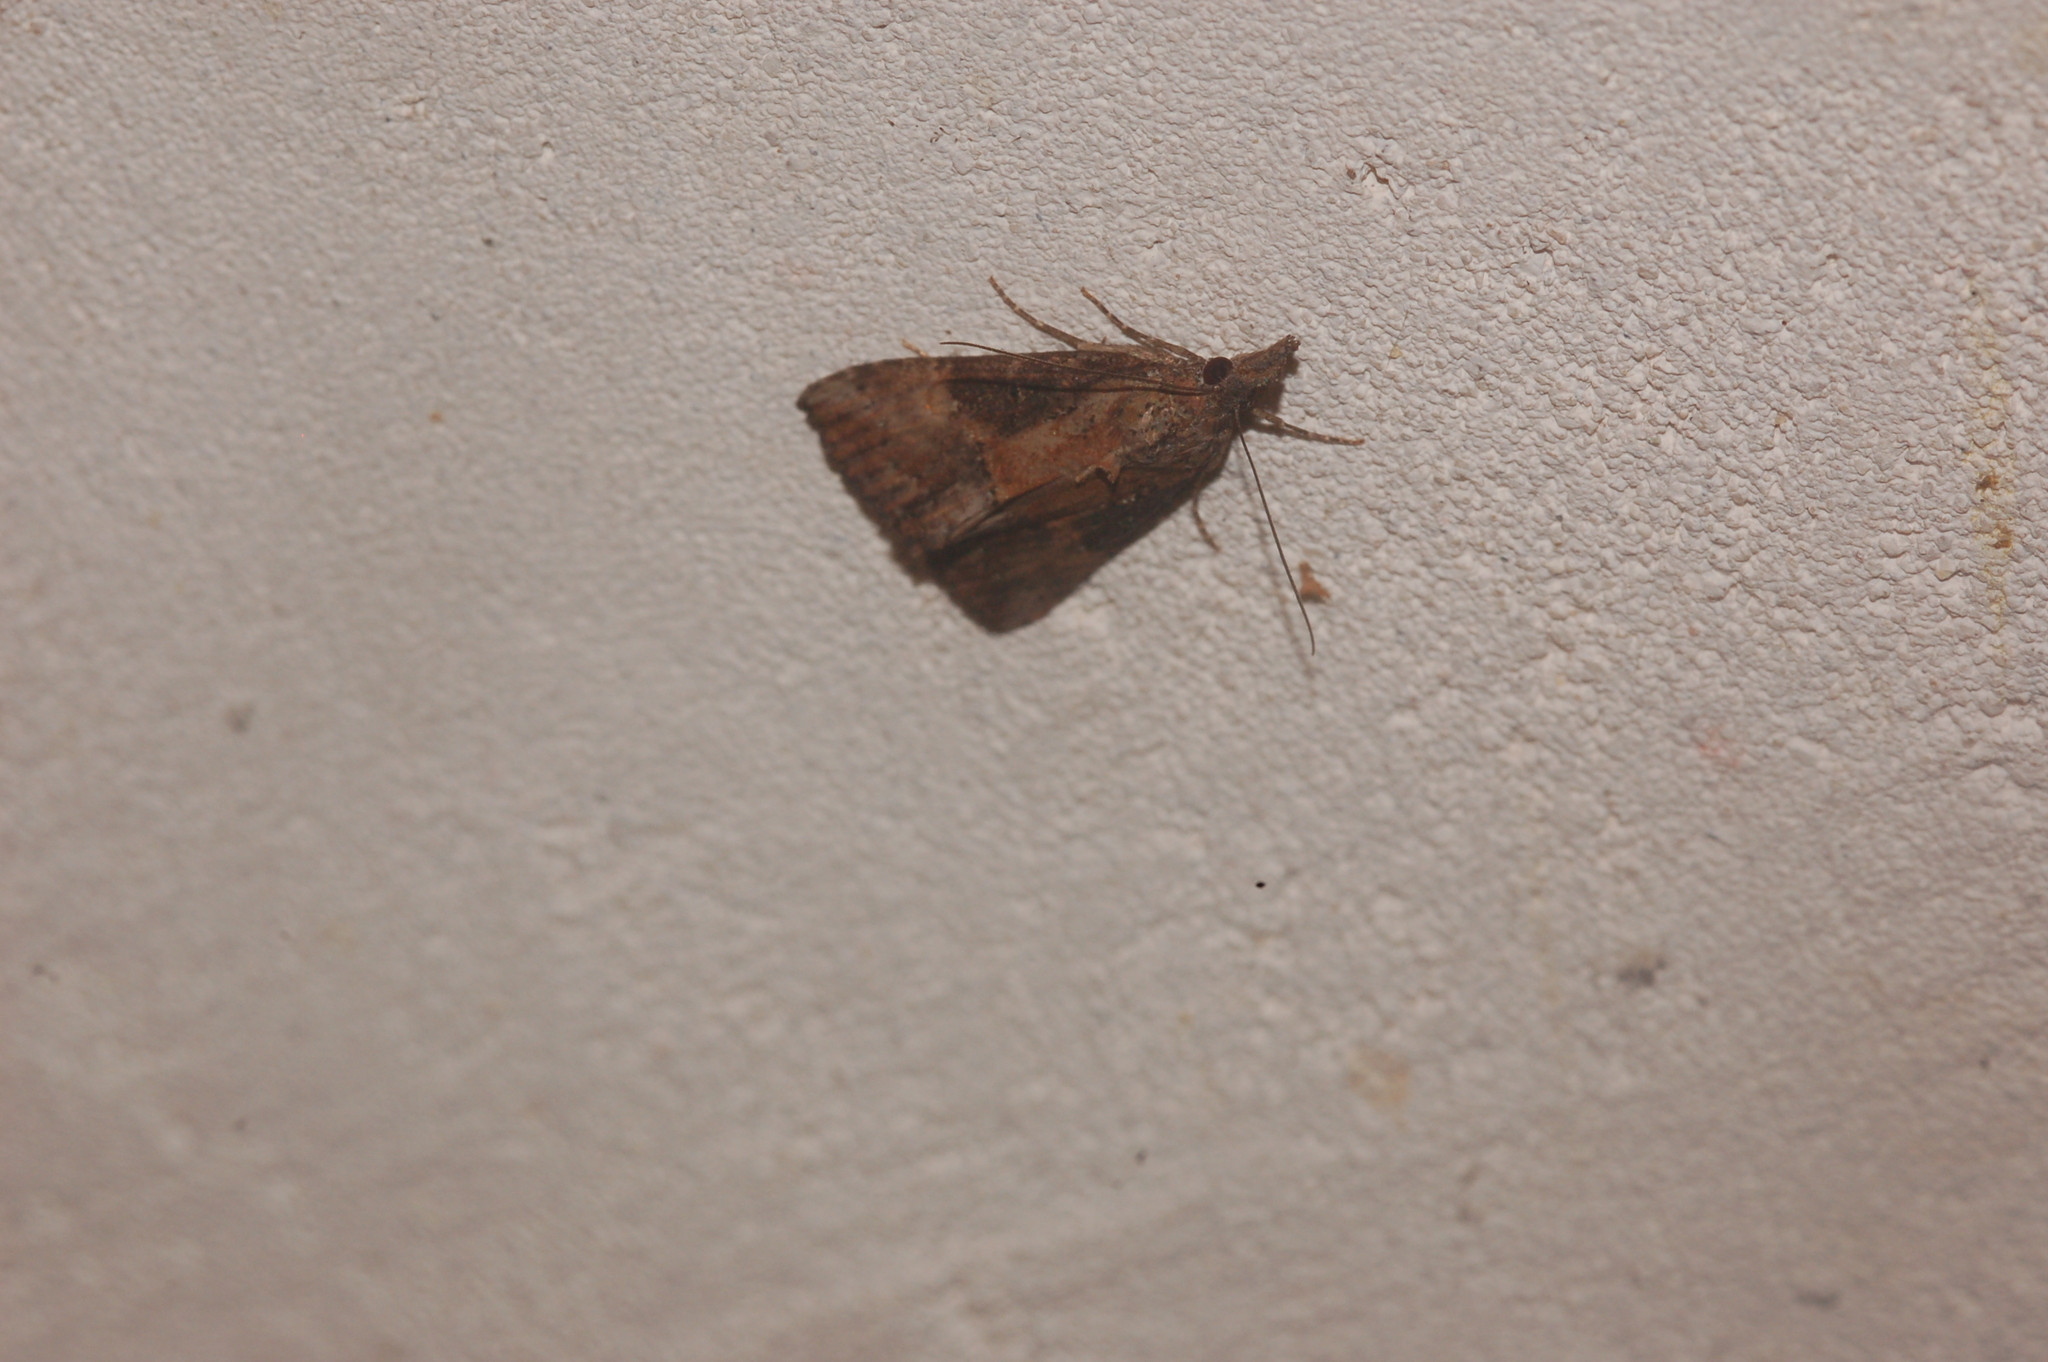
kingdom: Animalia
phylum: Arthropoda
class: Insecta
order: Lepidoptera
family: Erebidae
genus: Hypena
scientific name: Hypena scabra
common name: Green cloverworm
